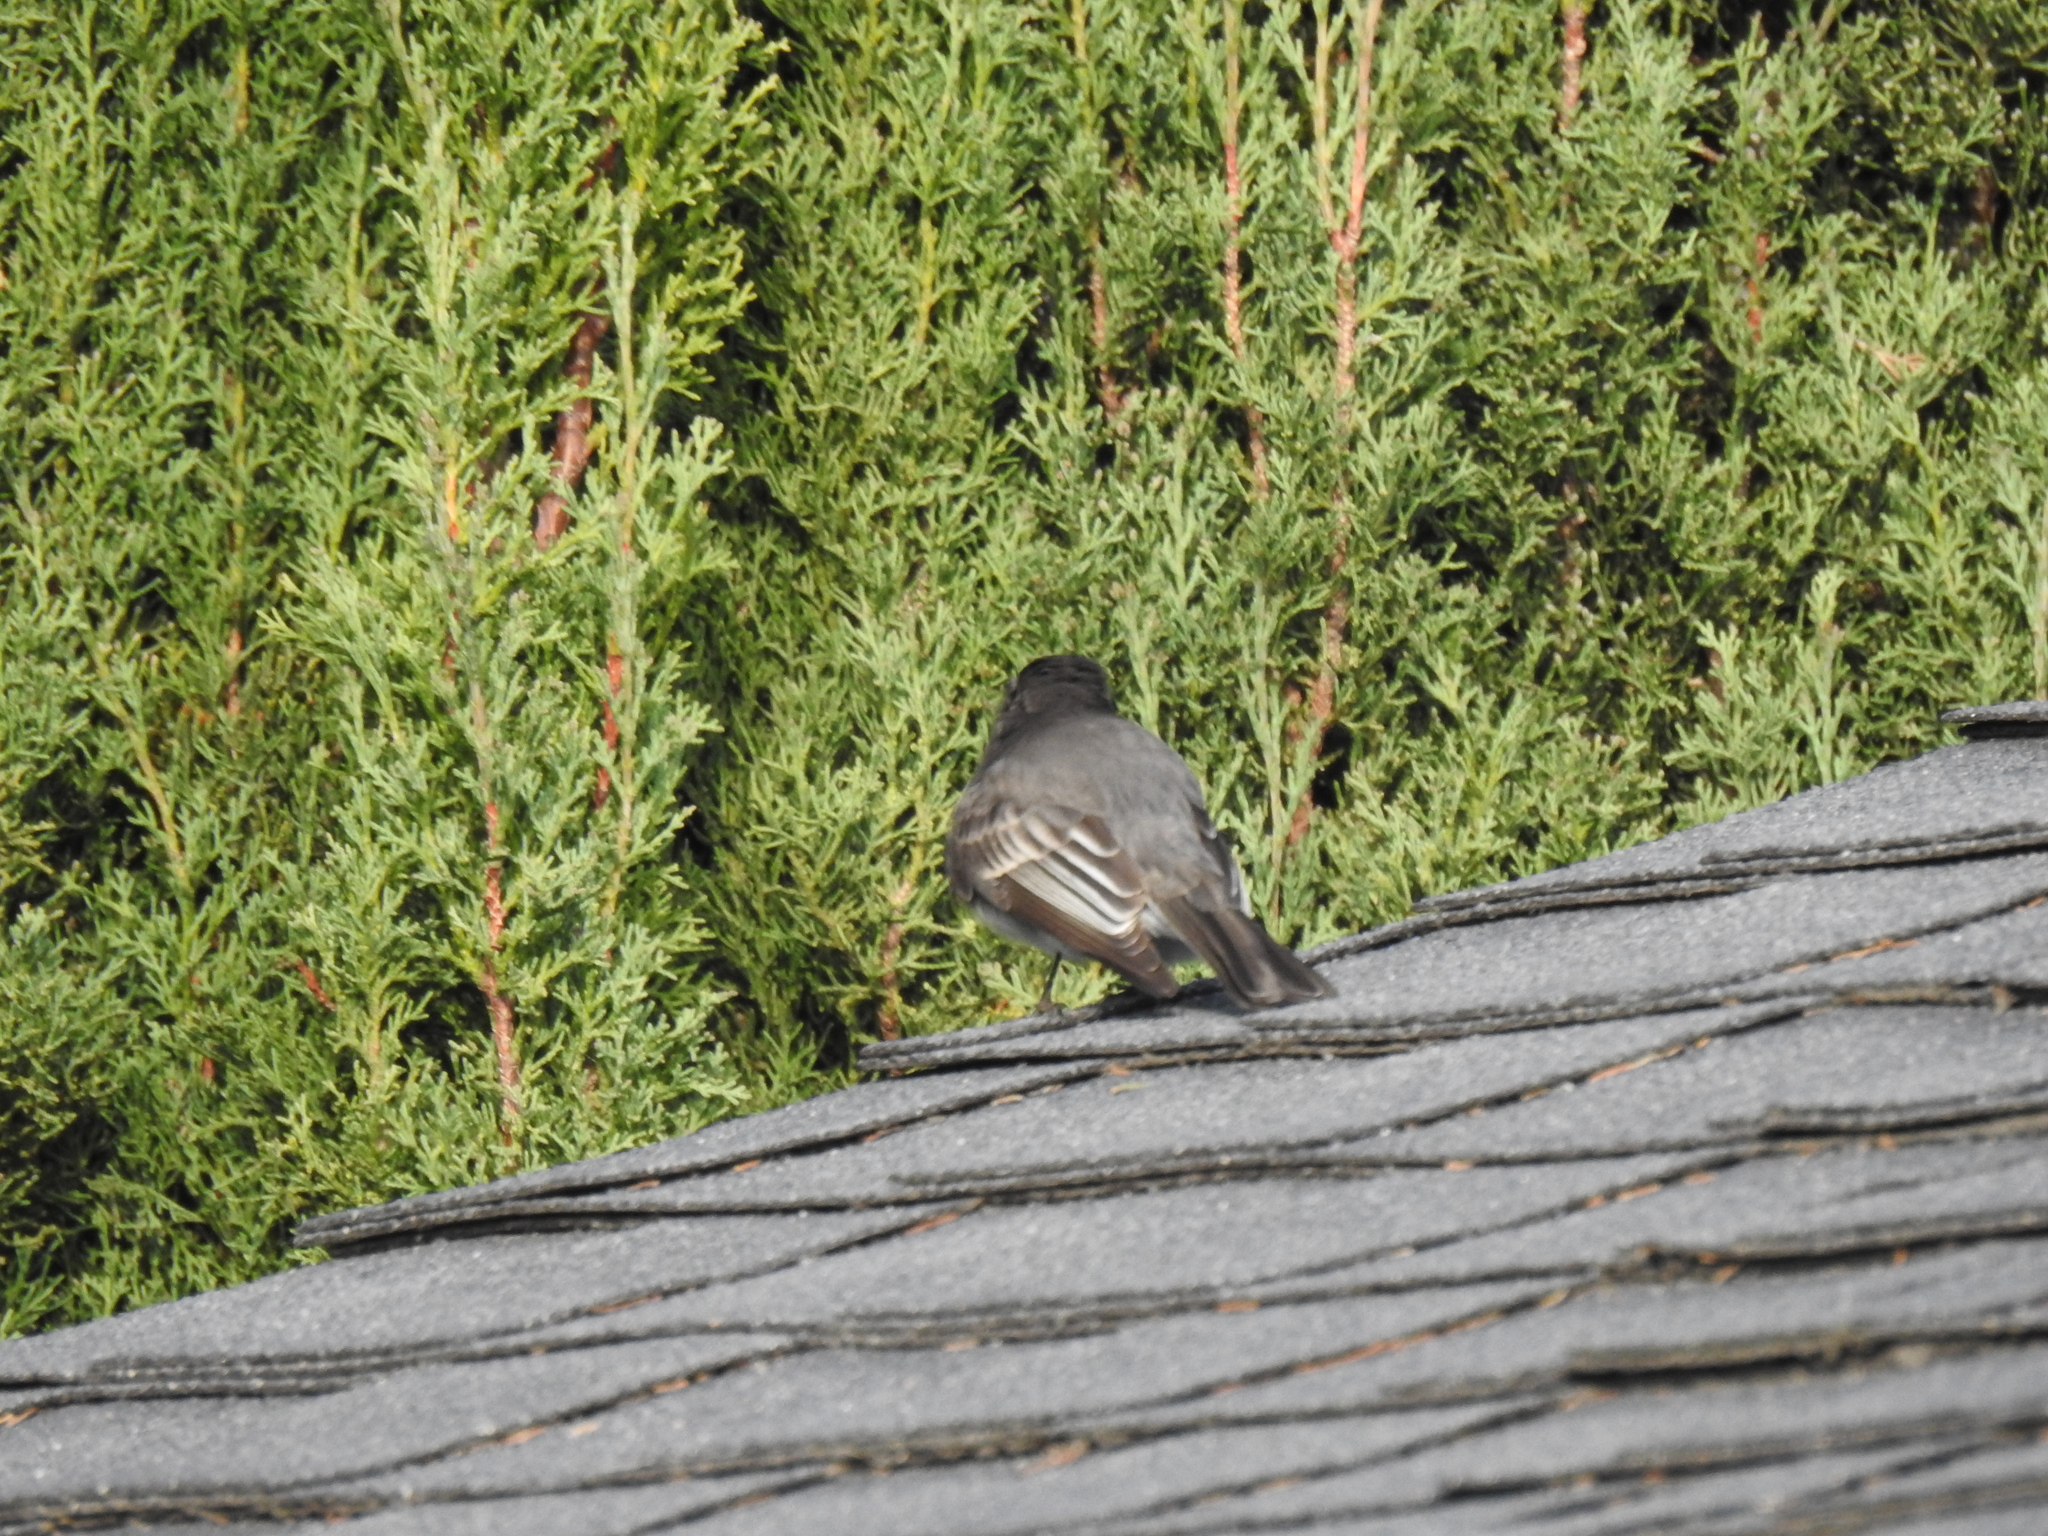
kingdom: Animalia
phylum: Chordata
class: Aves
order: Passeriformes
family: Tyrannidae
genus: Sayornis
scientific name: Sayornis nigricans
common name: Black phoebe
